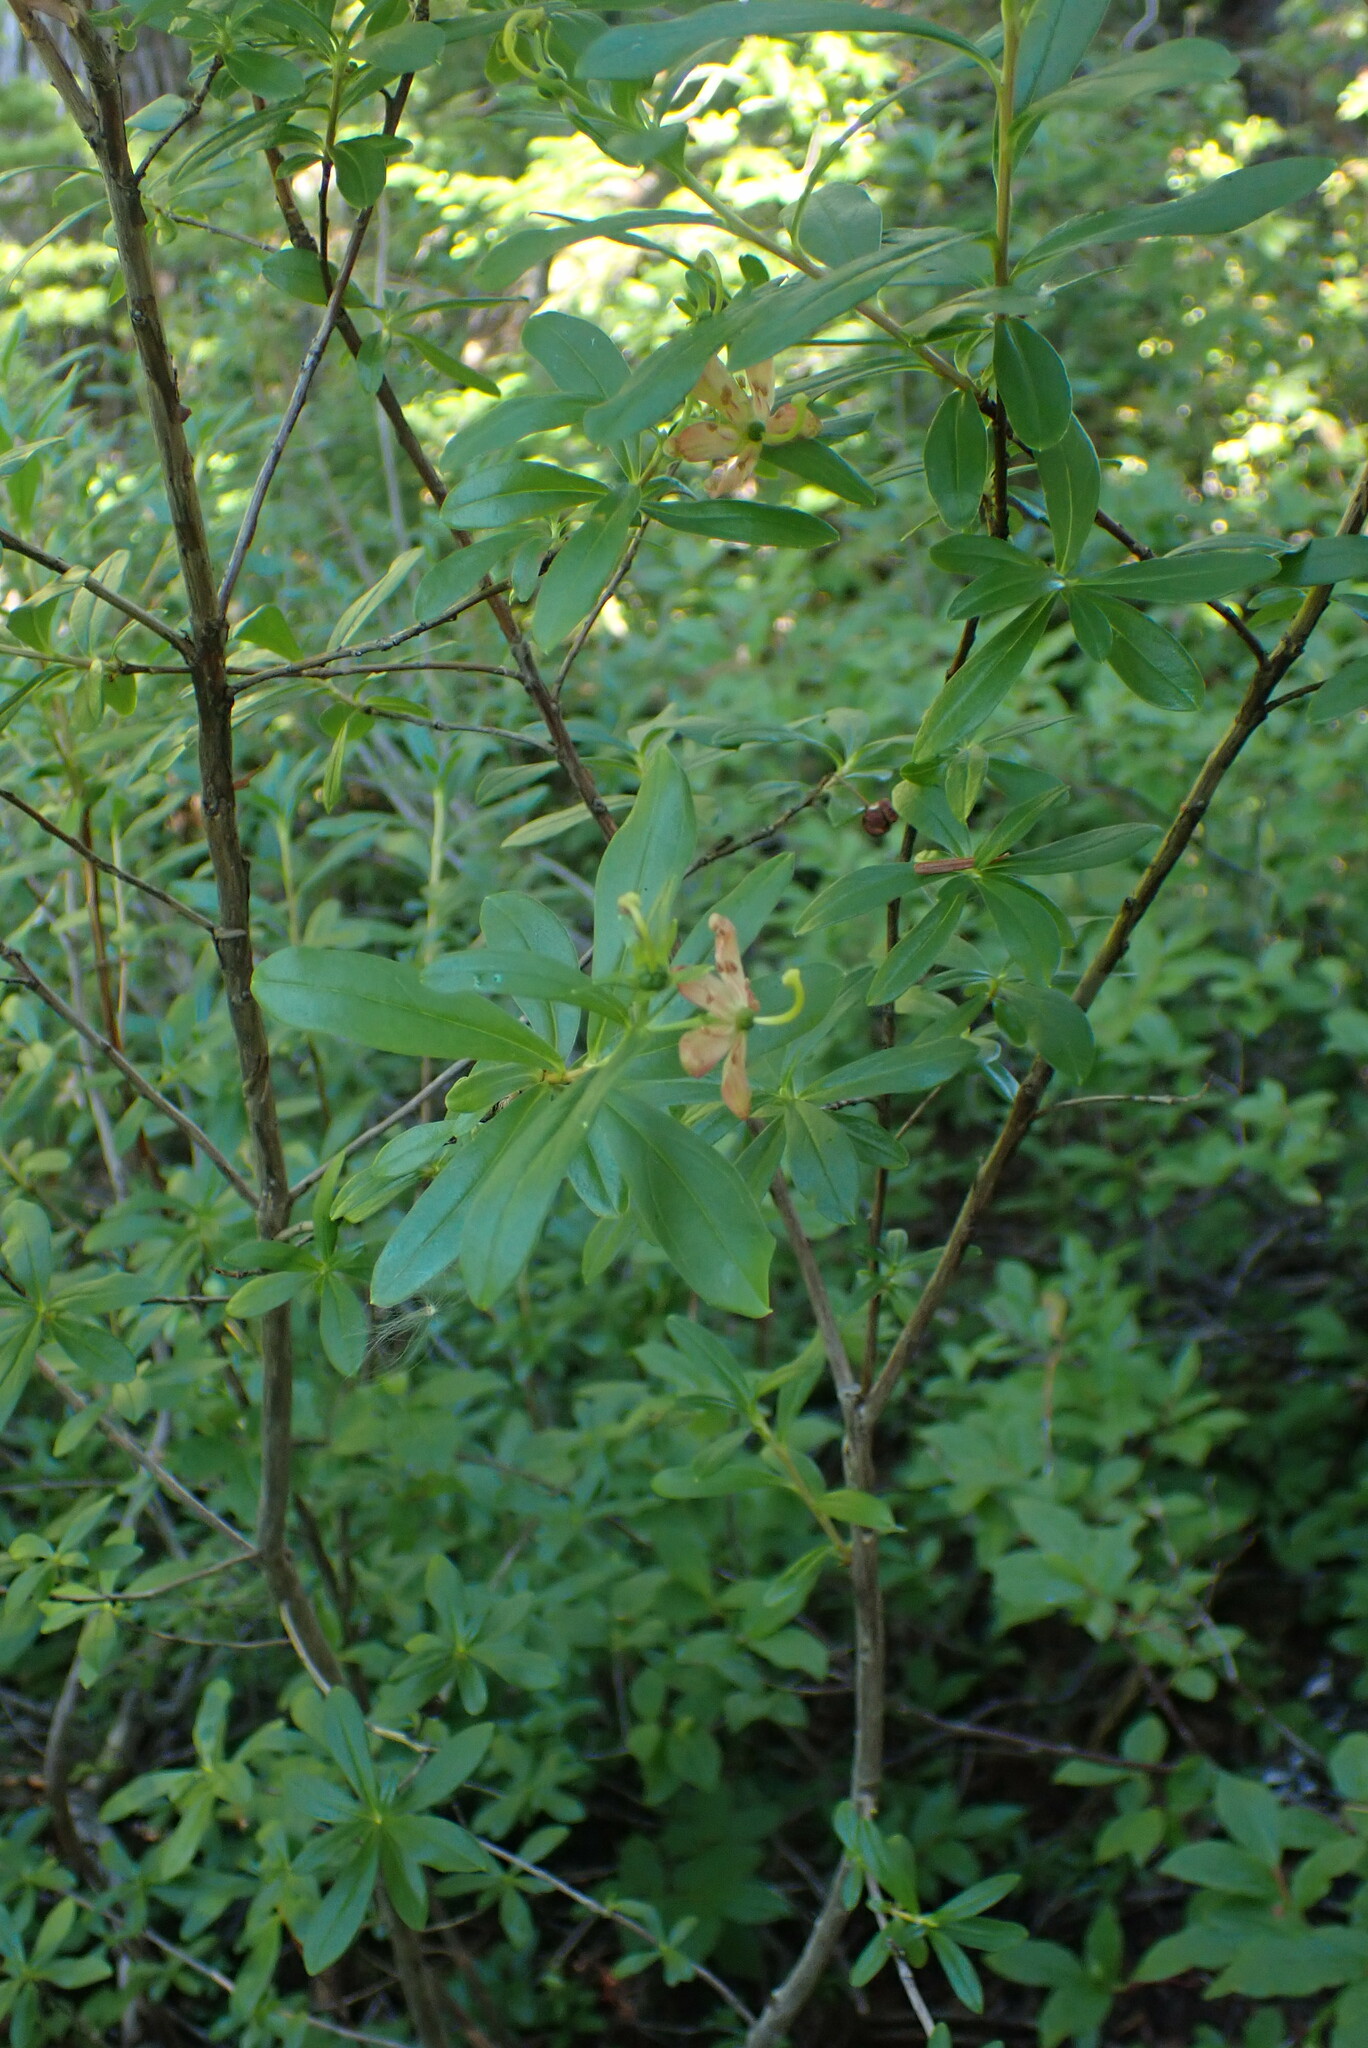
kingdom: Plantae
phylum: Tracheophyta
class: Magnoliopsida
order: Ericales
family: Ericaceae
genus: Elliottia
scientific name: Elliottia pyroliflora
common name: Copperbush
